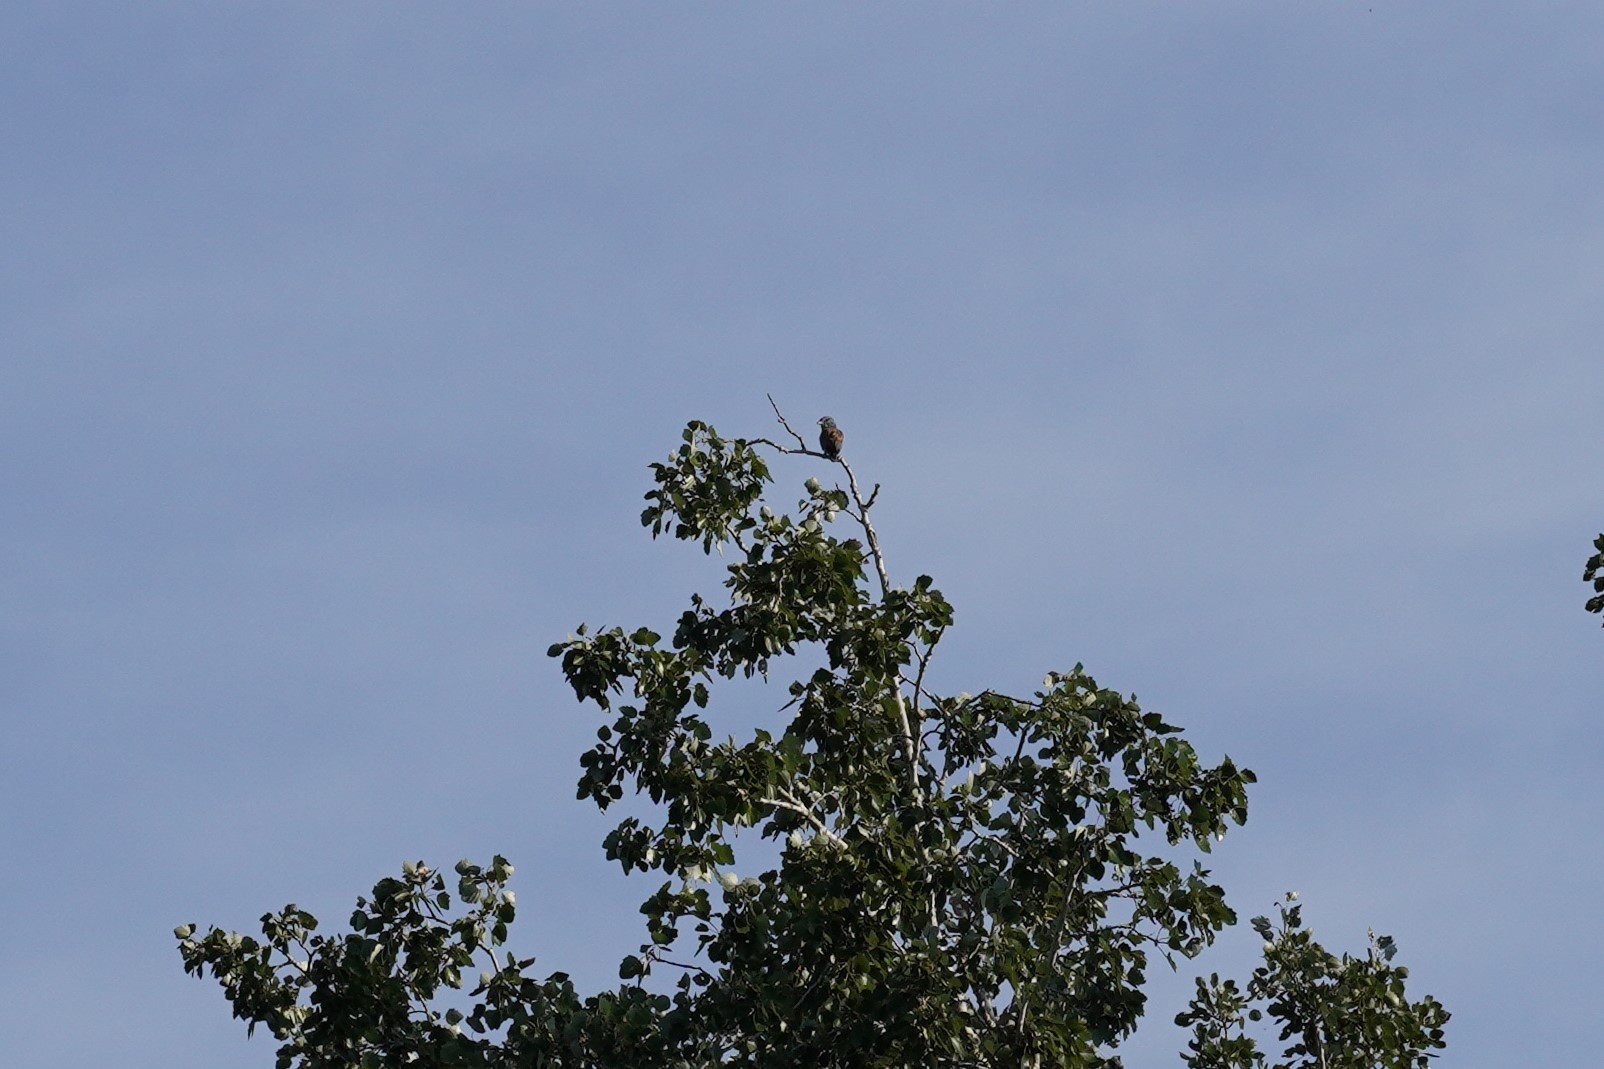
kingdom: Animalia
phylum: Chordata
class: Aves
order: Coraciiformes
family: Coraciidae
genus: Coracias
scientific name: Coracias garrulus
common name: European roller
